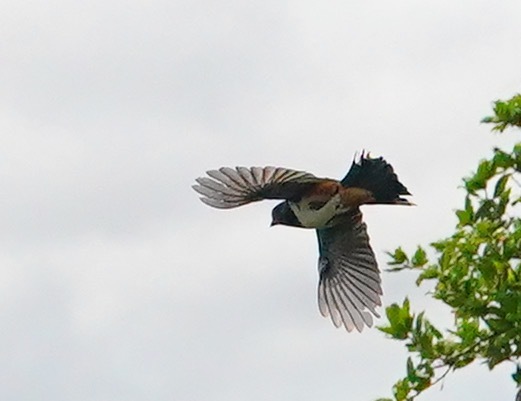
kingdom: Animalia
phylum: Chordata
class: Aves
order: Passeriformes
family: Passerellidae
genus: Pipilo
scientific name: Pipilo maculatus
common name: Spotted towhee
